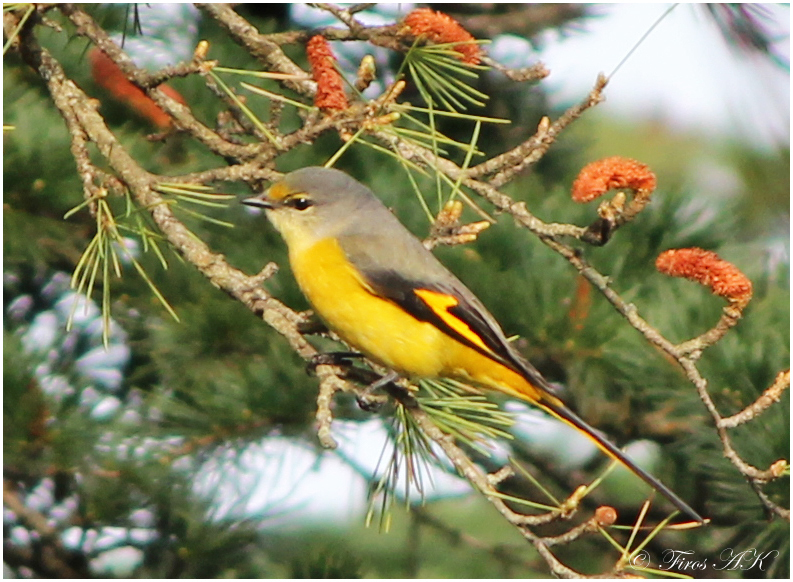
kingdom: Animalia
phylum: Chordata
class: Aves
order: Passeriformes
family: Campephagidae
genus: Pericrocotus
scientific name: Pericrocotus brevirostris
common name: Short-billed minivet
